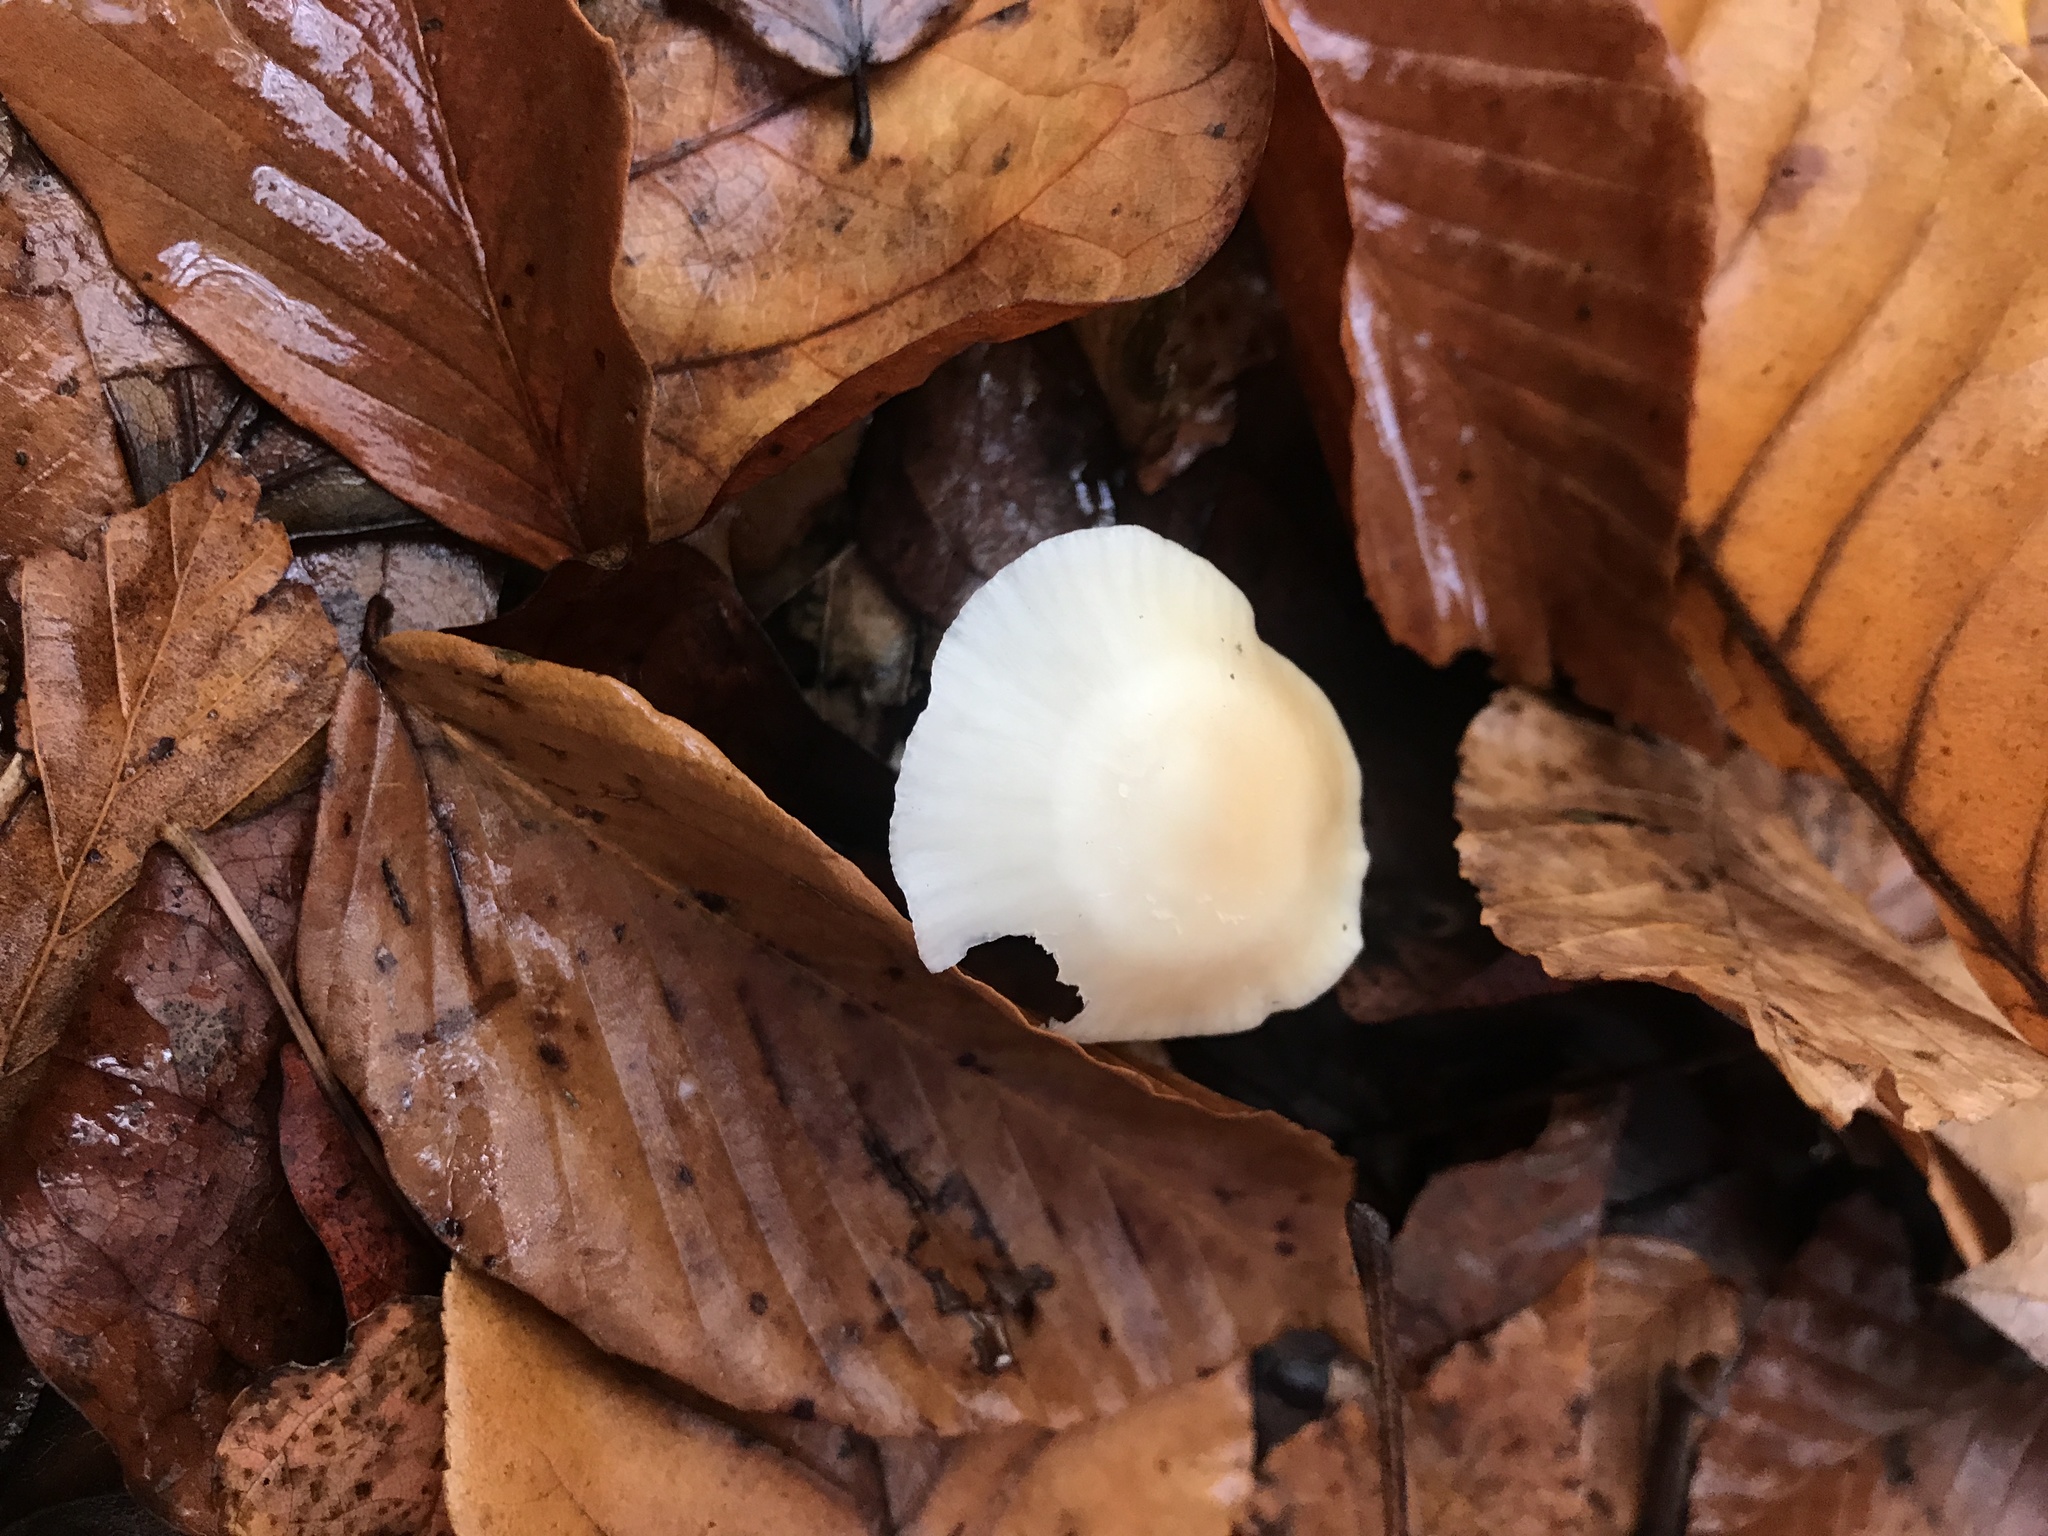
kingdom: Fungi
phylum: Basidiomycota
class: Agaricomycetes
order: Agaricales
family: Hygrophoraceae
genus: Cuphophyllus
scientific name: Cuphophyllus virgineus
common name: Snowy waxcap
